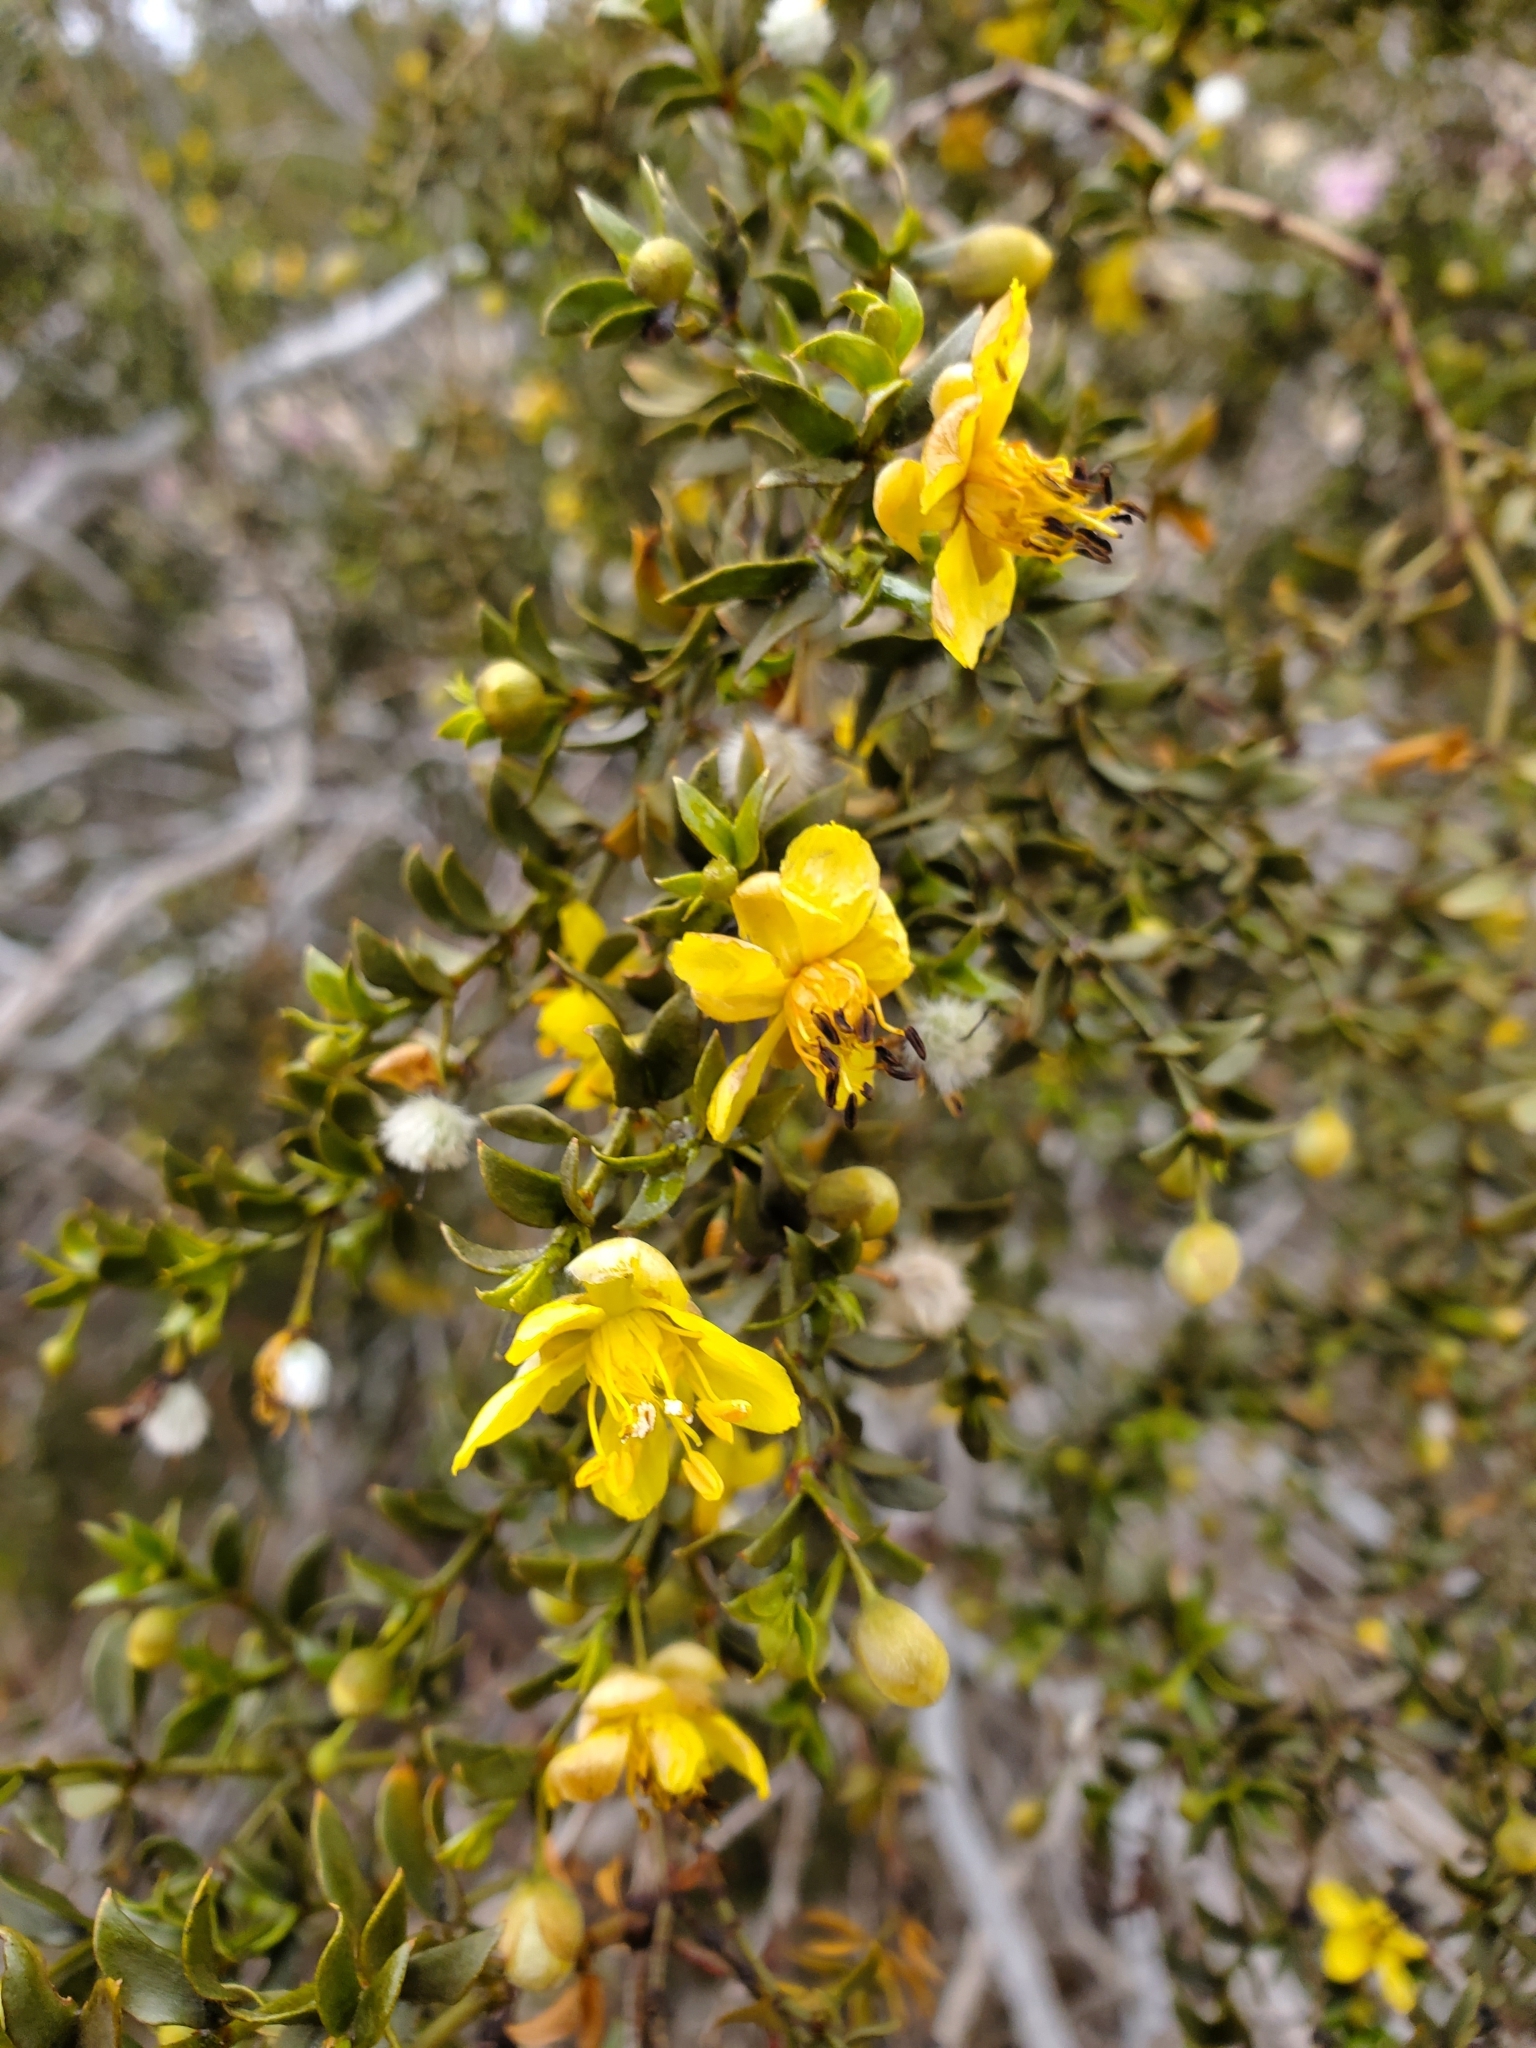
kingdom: Plantae
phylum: Tracheophyta
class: Magnoliopsida
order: Zygophyllales
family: Zygophyllaceae
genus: Larrea
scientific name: Larrea tridentata
